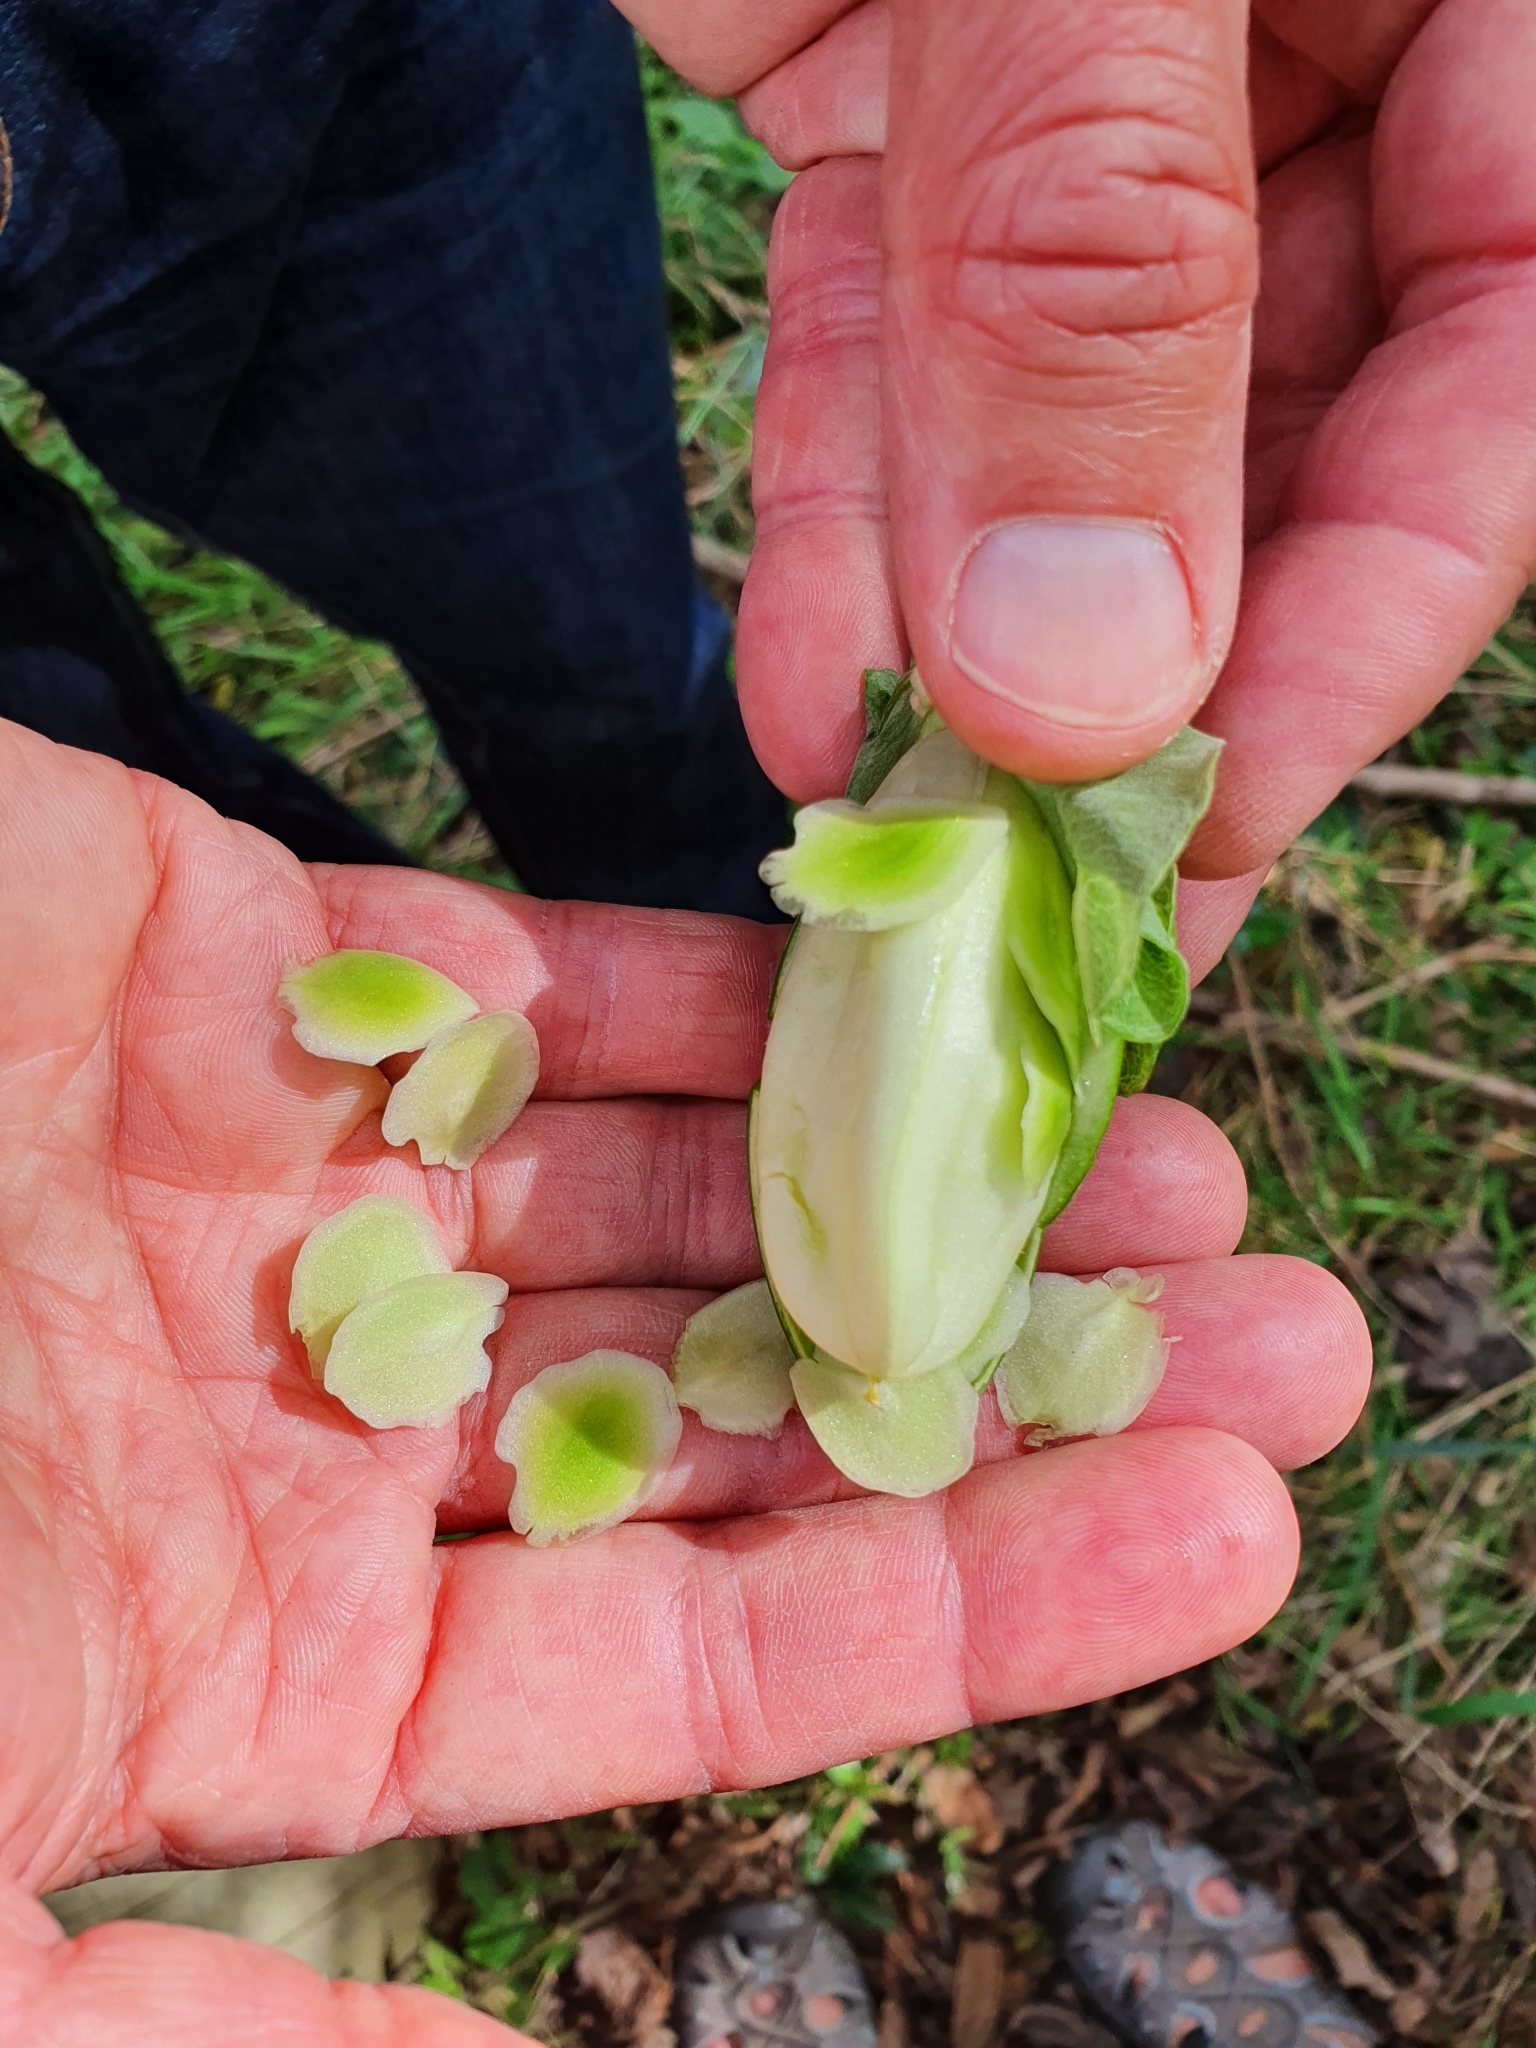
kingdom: Plantae
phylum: Tracheophyta
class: Magnoliopsida
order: Ericales
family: Polemoniaceae
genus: Cobaea
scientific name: Cobaea scandens
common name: Cup-and-saucer-vine
